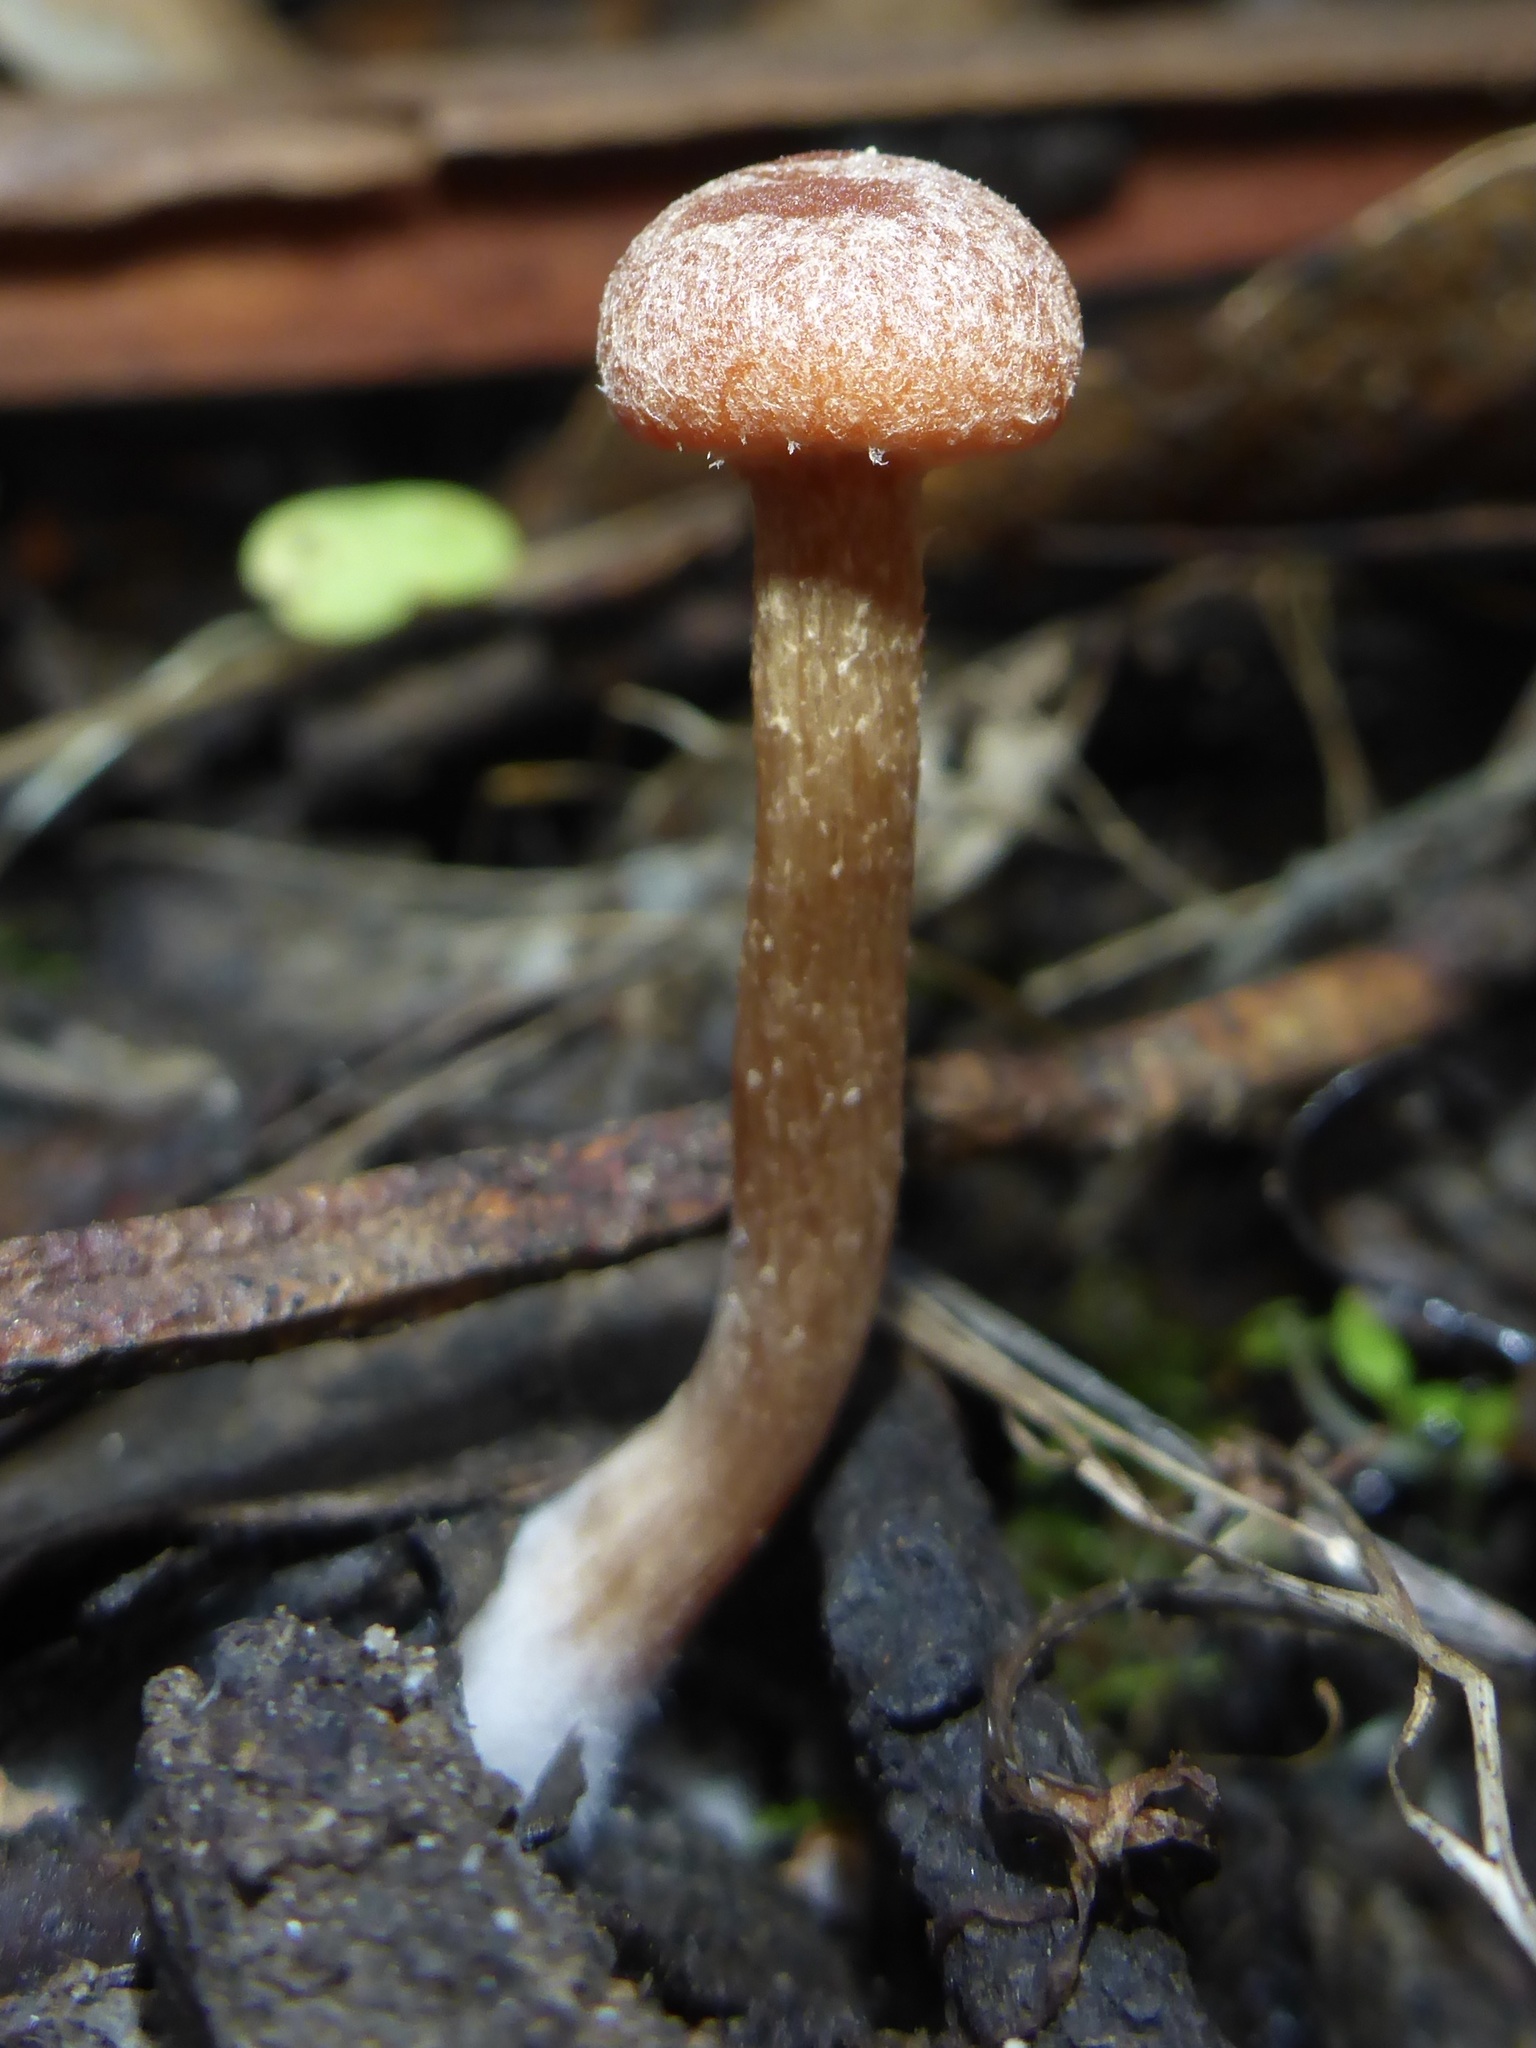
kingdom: Fungi
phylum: Basidiomycota
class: Agaricomycetes
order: Agaricales
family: Tubariaceae
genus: Tubaria
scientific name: Tubaria furfuracea
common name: Scurfy twiglet
